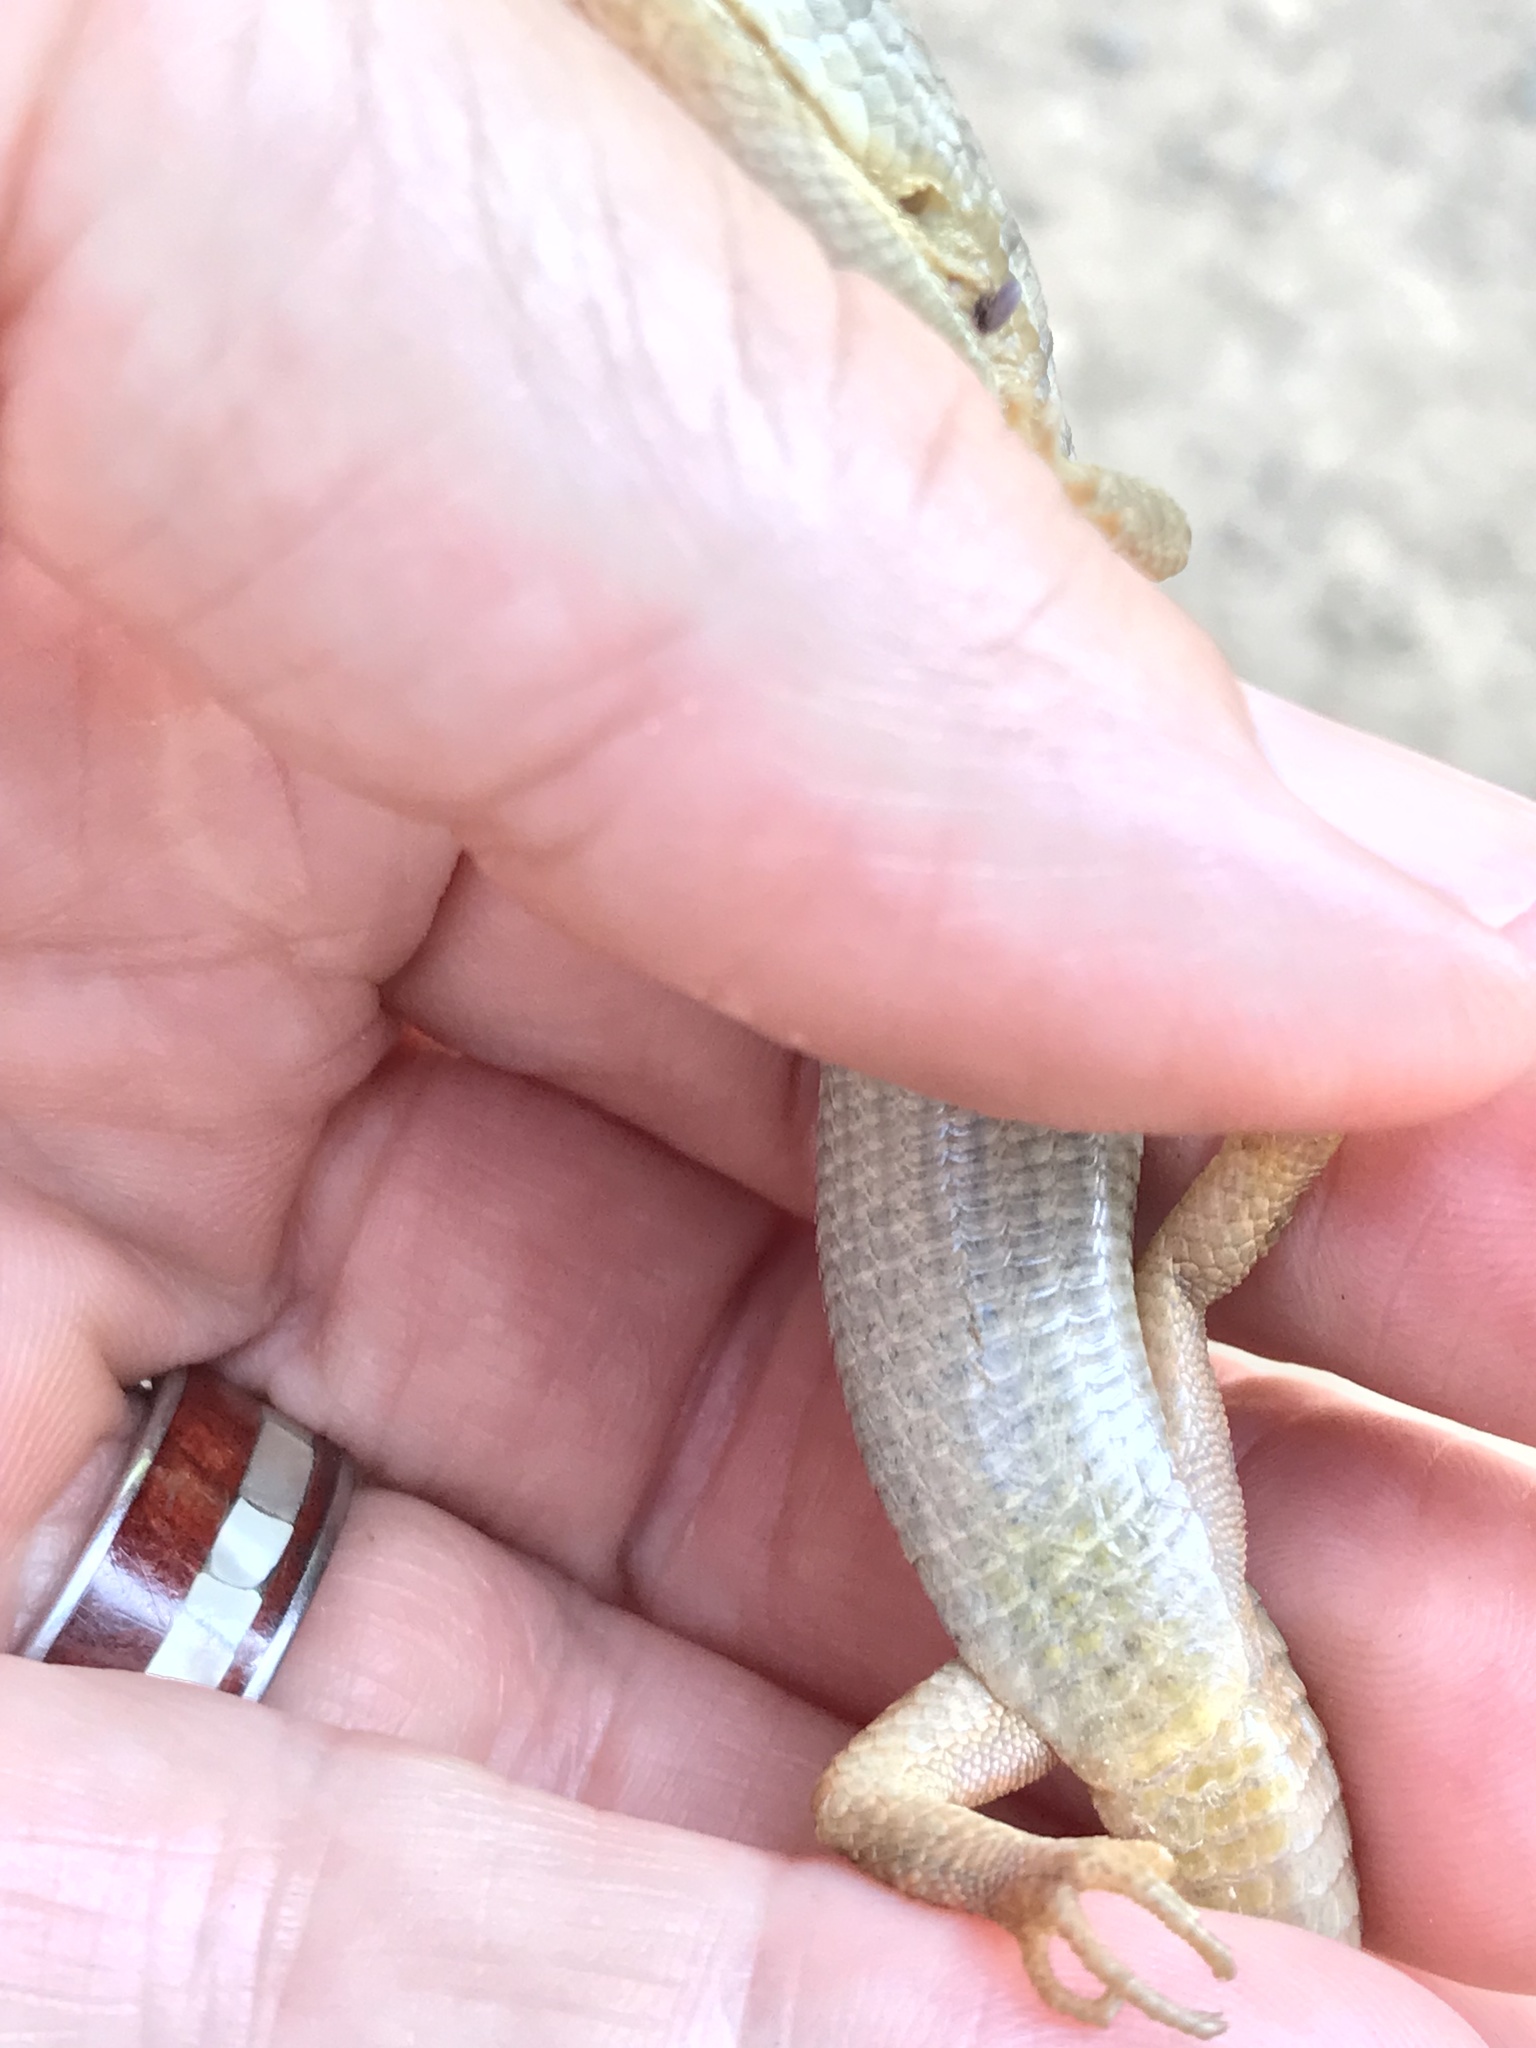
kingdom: Animalia
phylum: Chordata
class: Squamata
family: Anguidae
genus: Elgaria
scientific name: Elgaria multicarinata
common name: Southern alligator lizard
